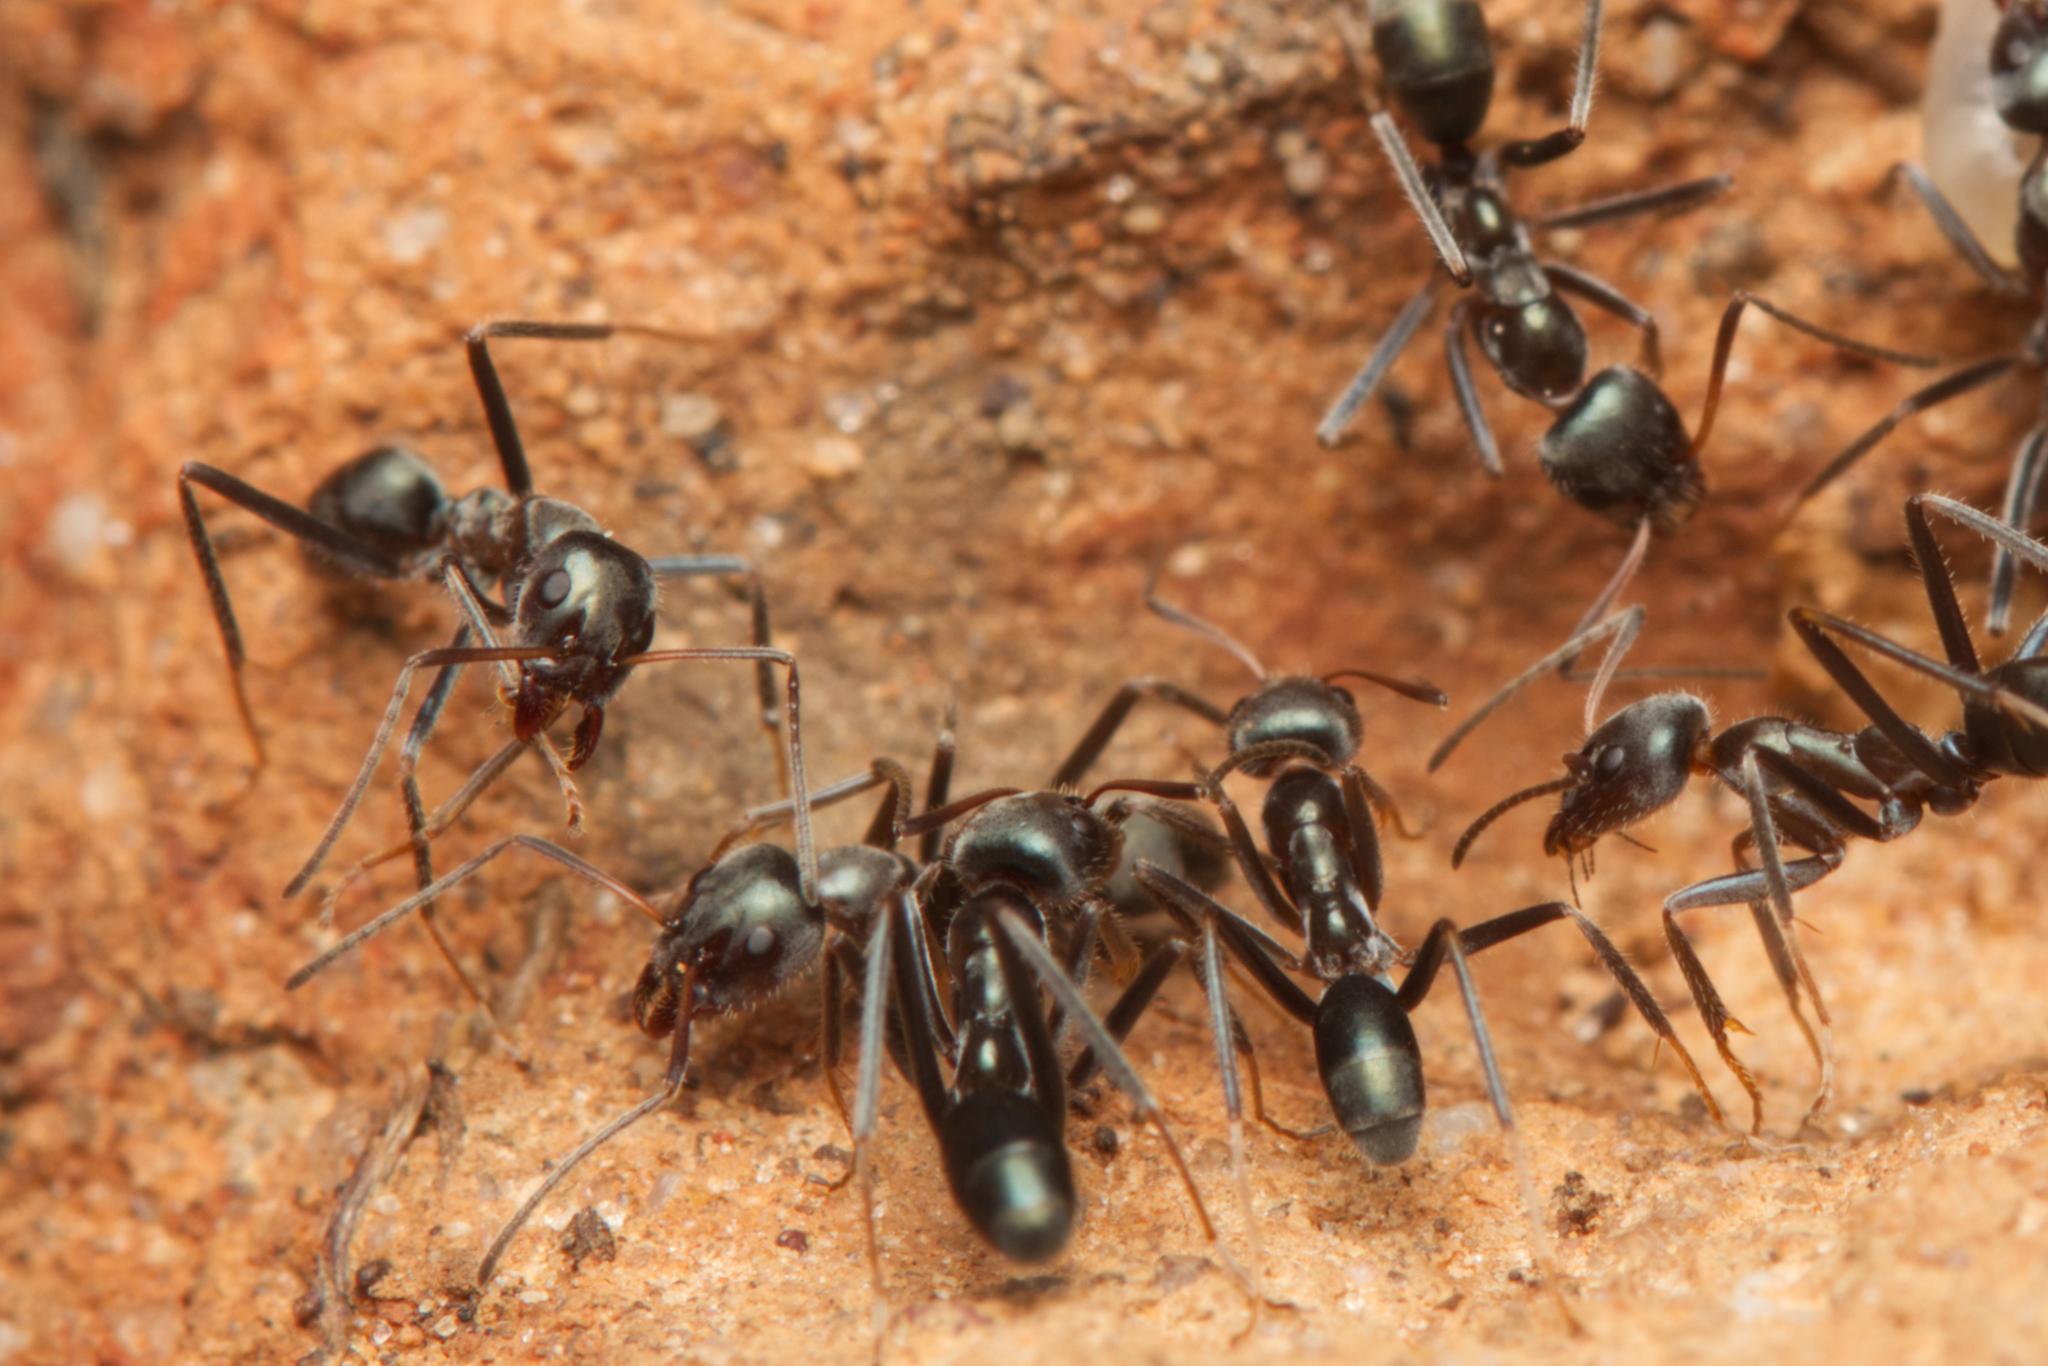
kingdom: Animalia
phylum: Arthropoda
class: Insecta
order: Hymenoptera
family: Formicidae
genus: Iridomyrmex
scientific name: Iridomyrmex
